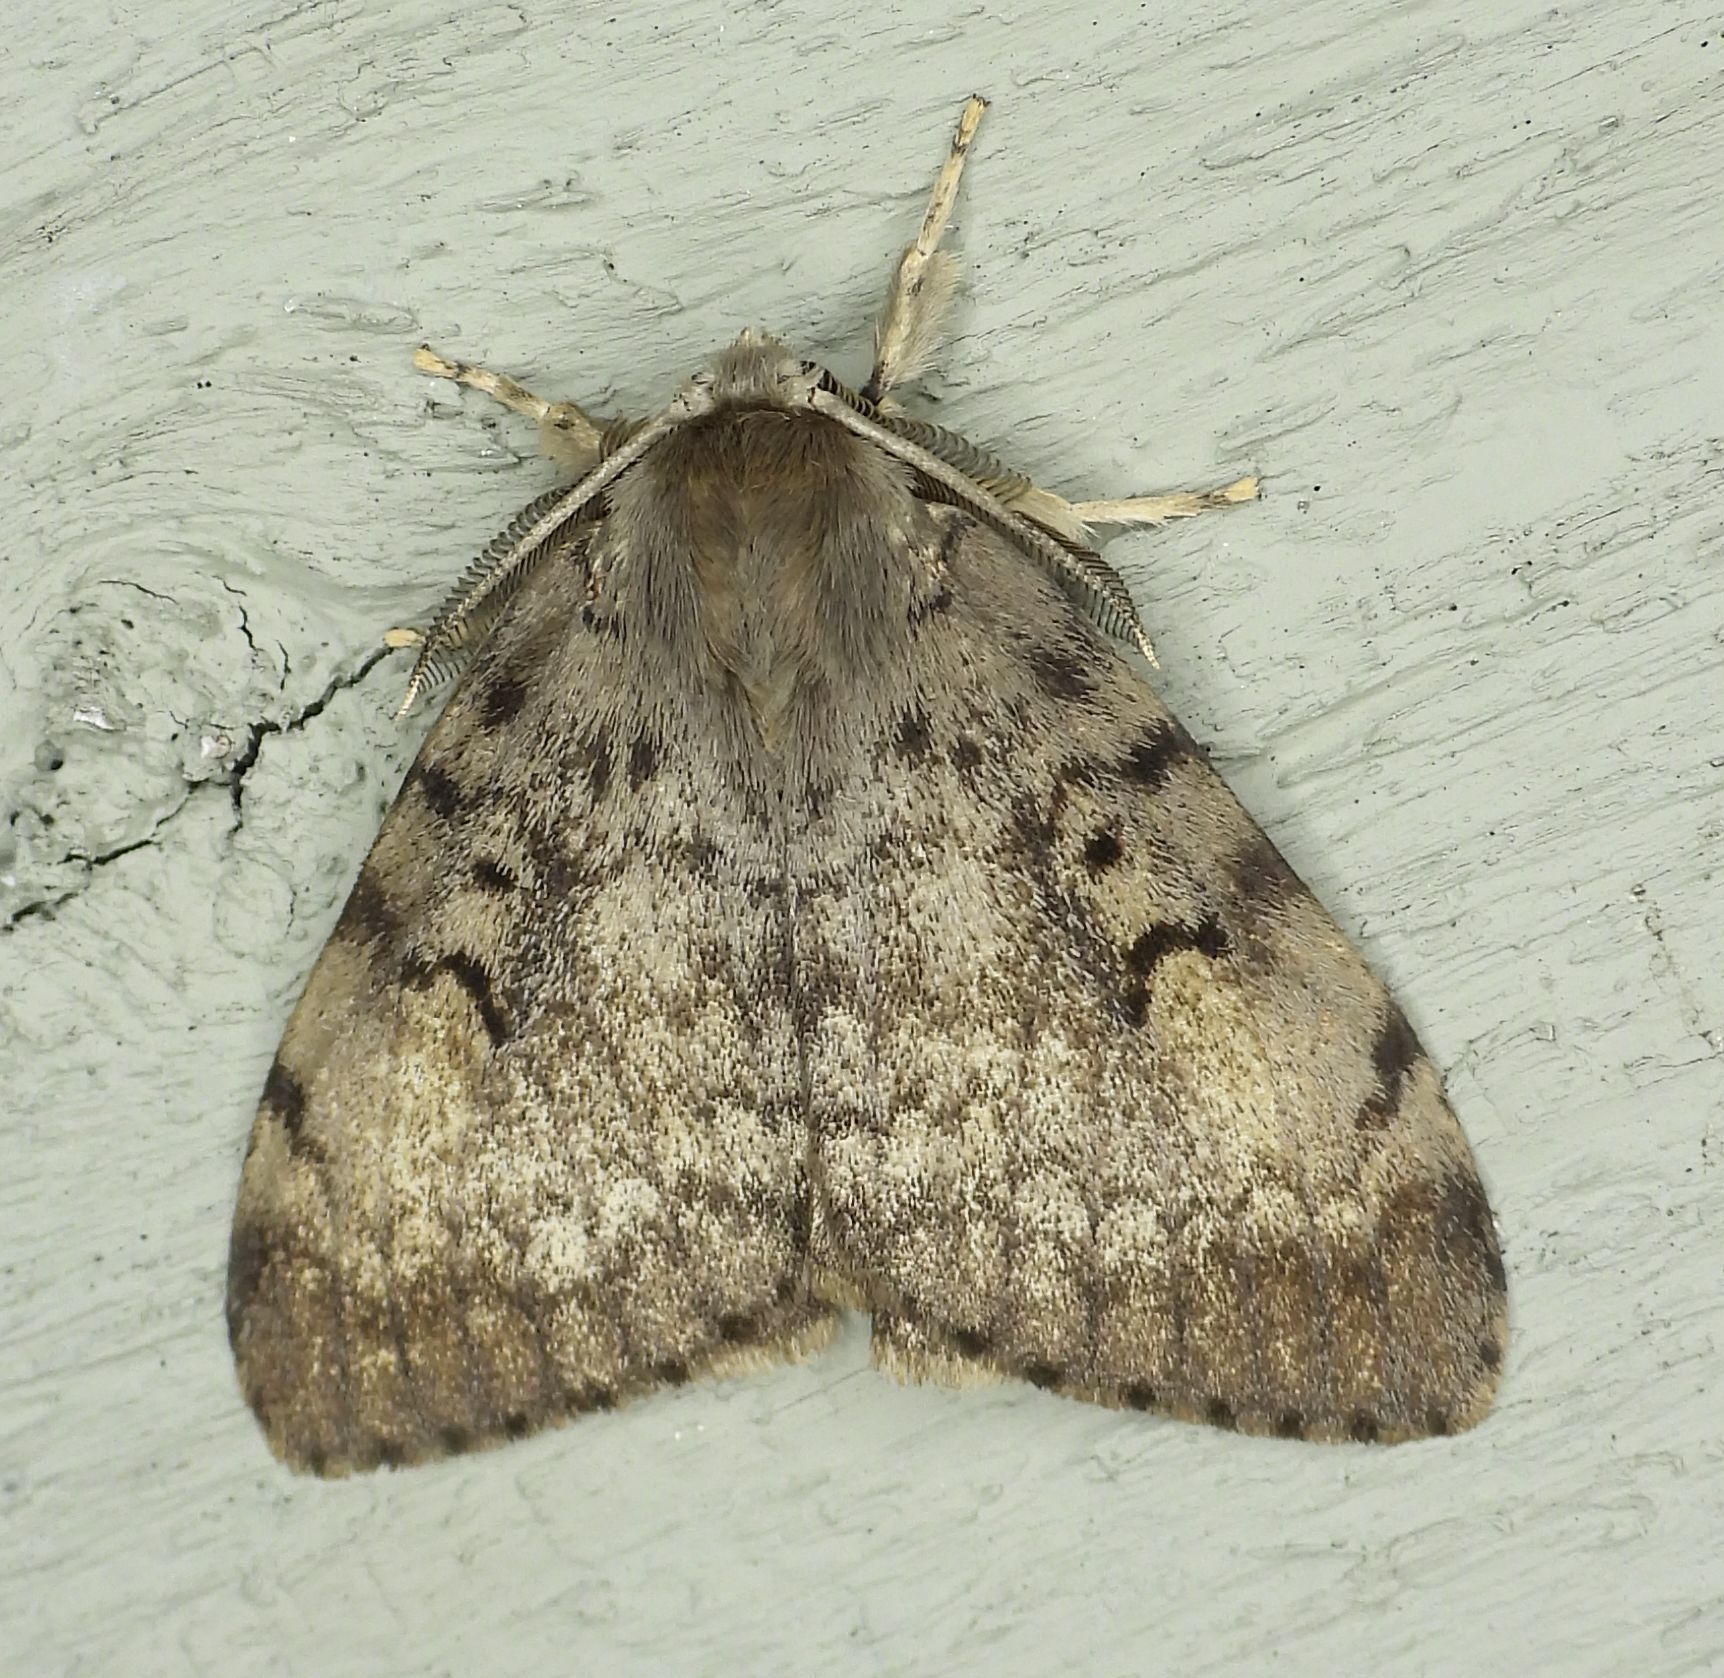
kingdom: Animalia
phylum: Arthropoda
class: Insecta
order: Lepidoptera
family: Erebidae
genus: Lymantria
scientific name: Lymantria dispar
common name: Gypsy moth
